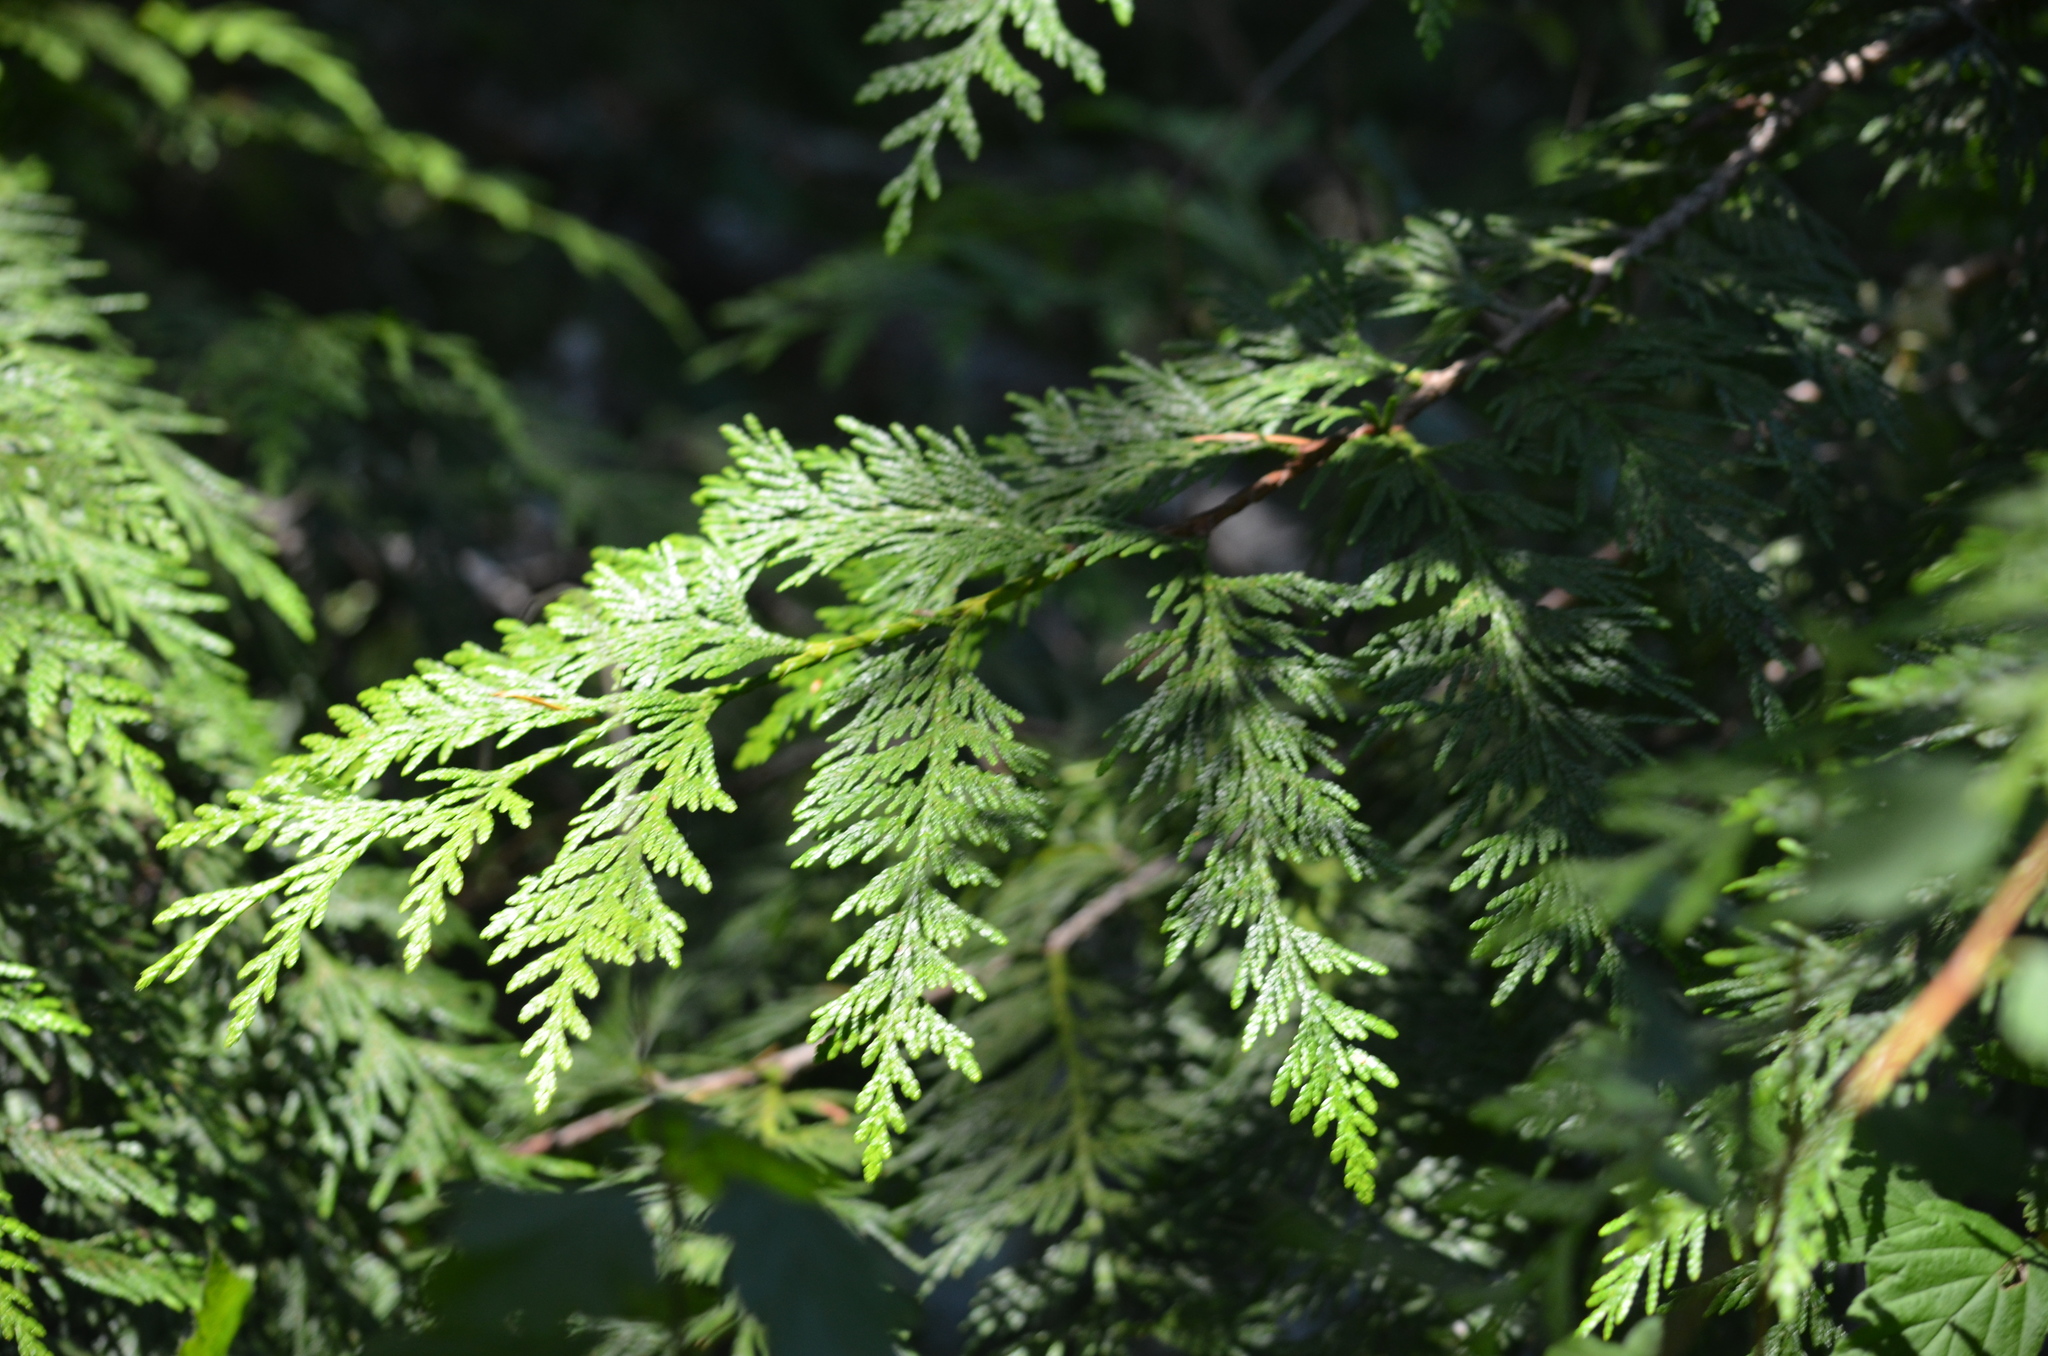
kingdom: Plantae
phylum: Tracheophyta
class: Pinopsida
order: Pinales
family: Cupressaceae
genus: Thuja
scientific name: Thuja plicata
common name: Western red-cedar
